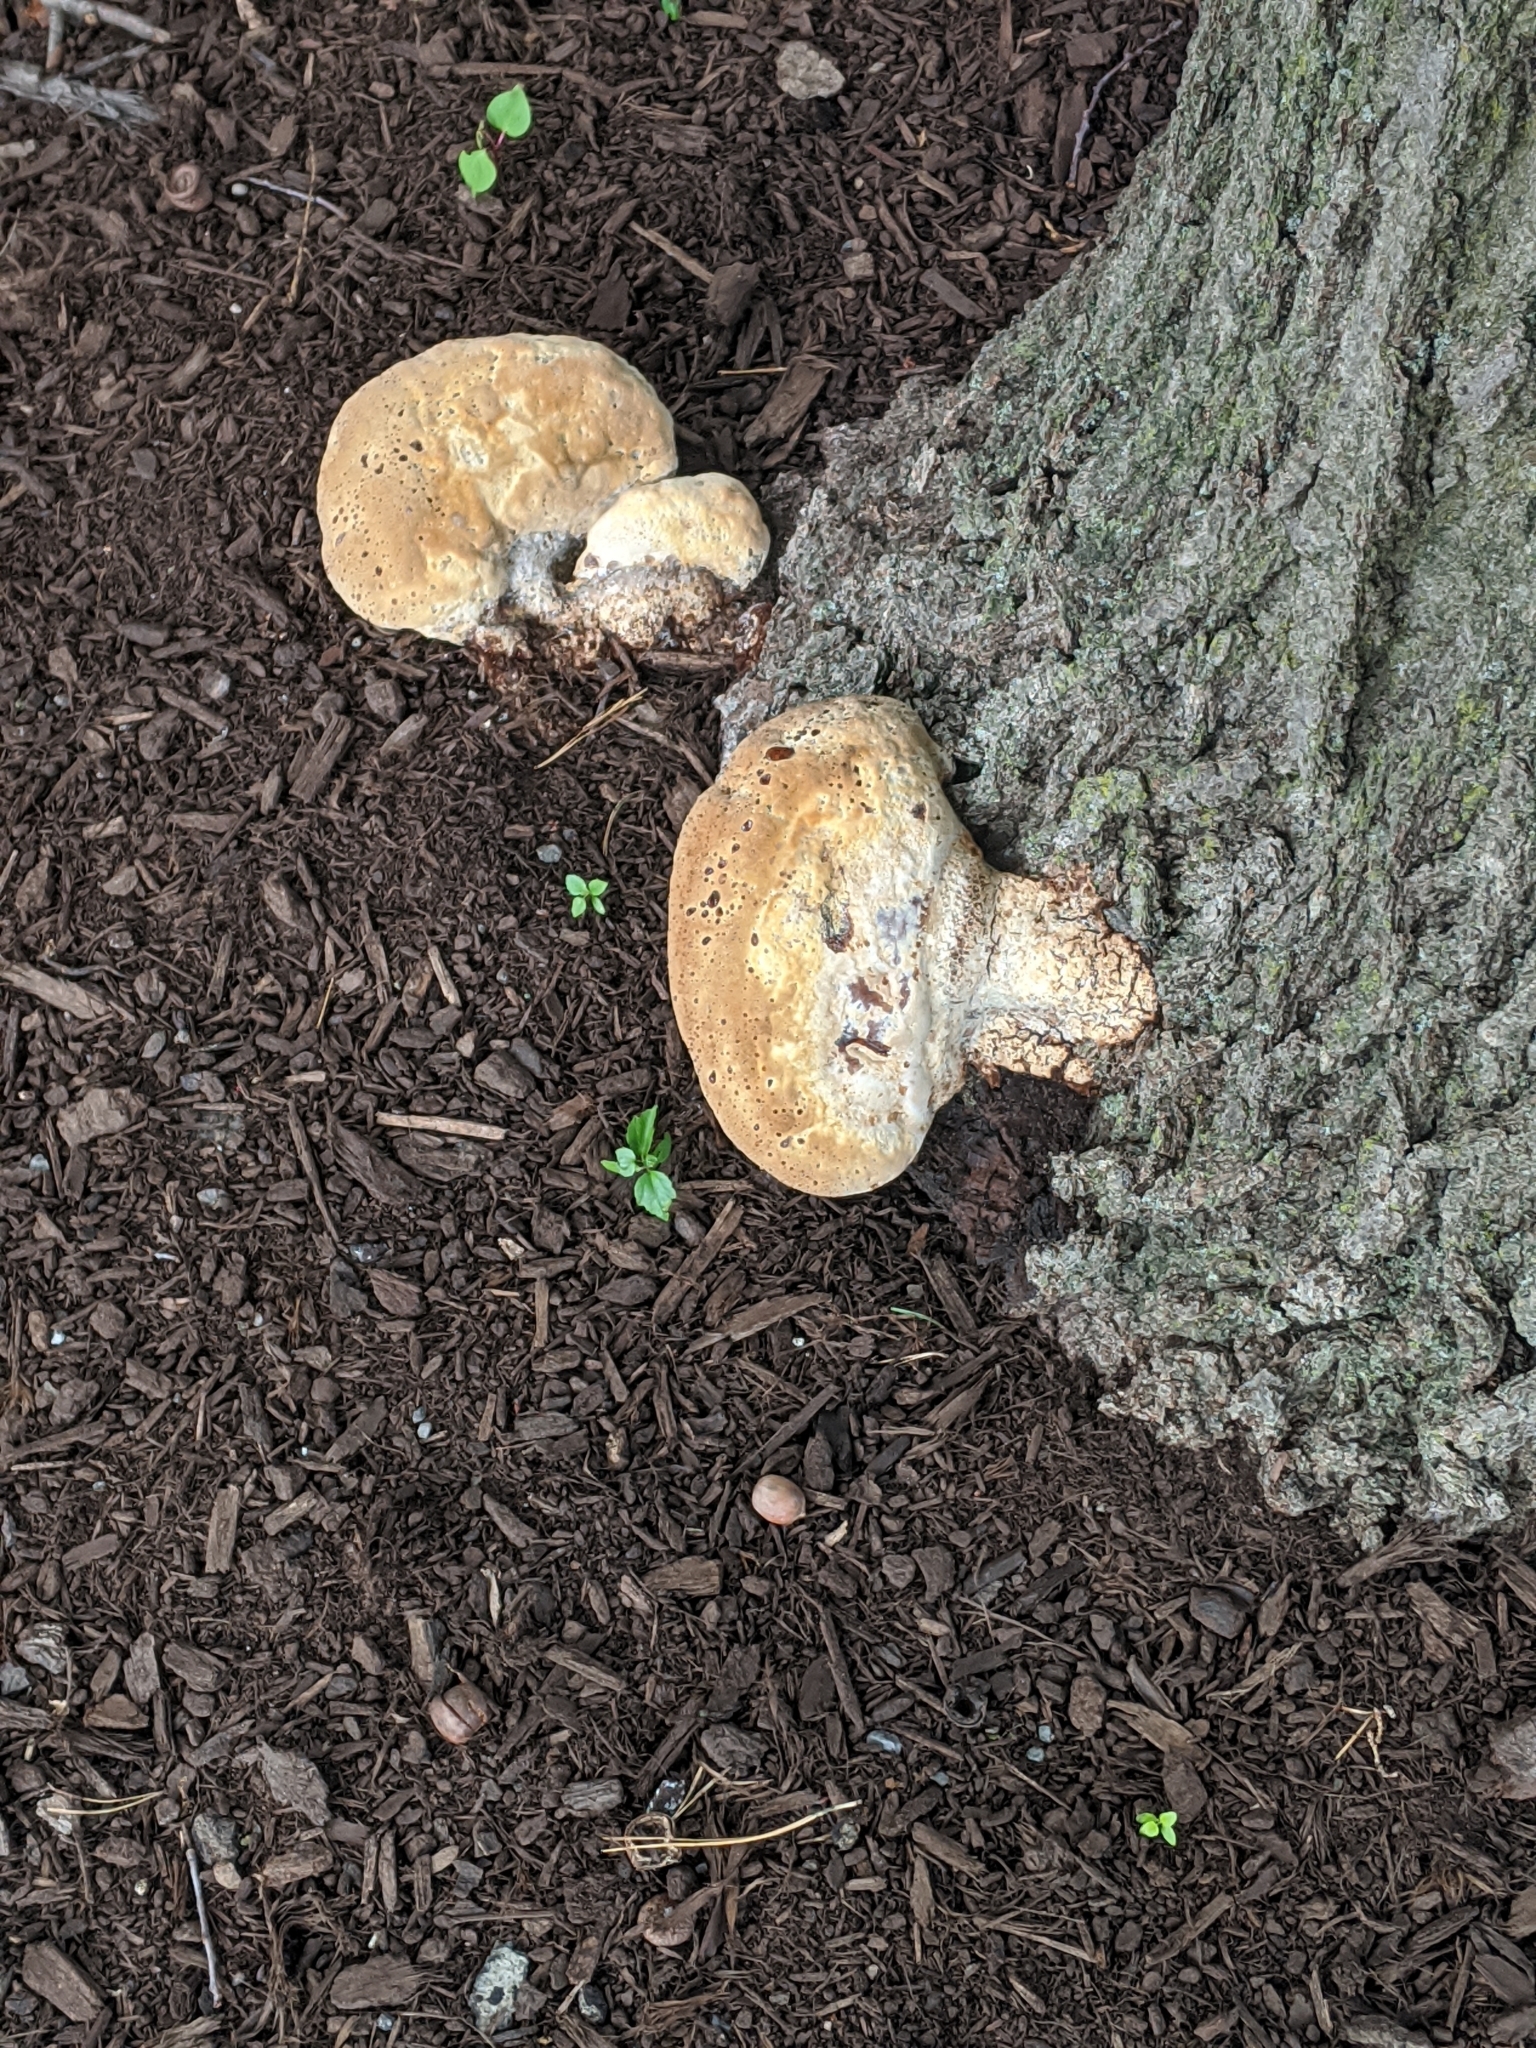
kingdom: Fungi
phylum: Basidiomycota
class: Agaricomycetes
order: Hymenochaetales
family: Hymenochaetaceae
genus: Pseudoinonotus
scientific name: Pseudoinonotus dryadeus
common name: Oak bracket
